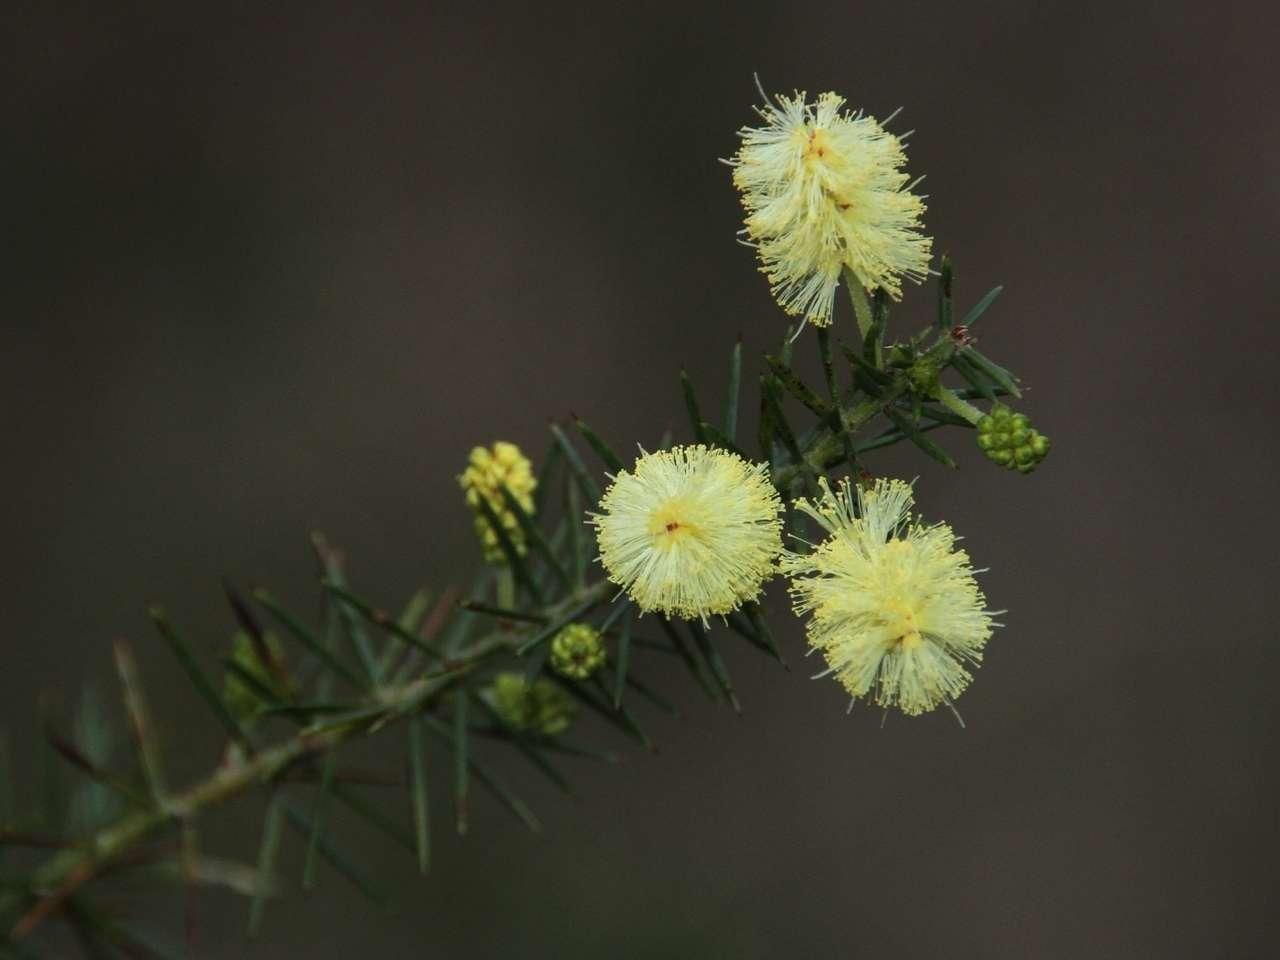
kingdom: Plantae
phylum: Tracheophyta
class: Magnoliopsida
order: Fabales
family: Fabaceae
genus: Acacia
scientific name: Acacia verticillata
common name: Prickly moses
